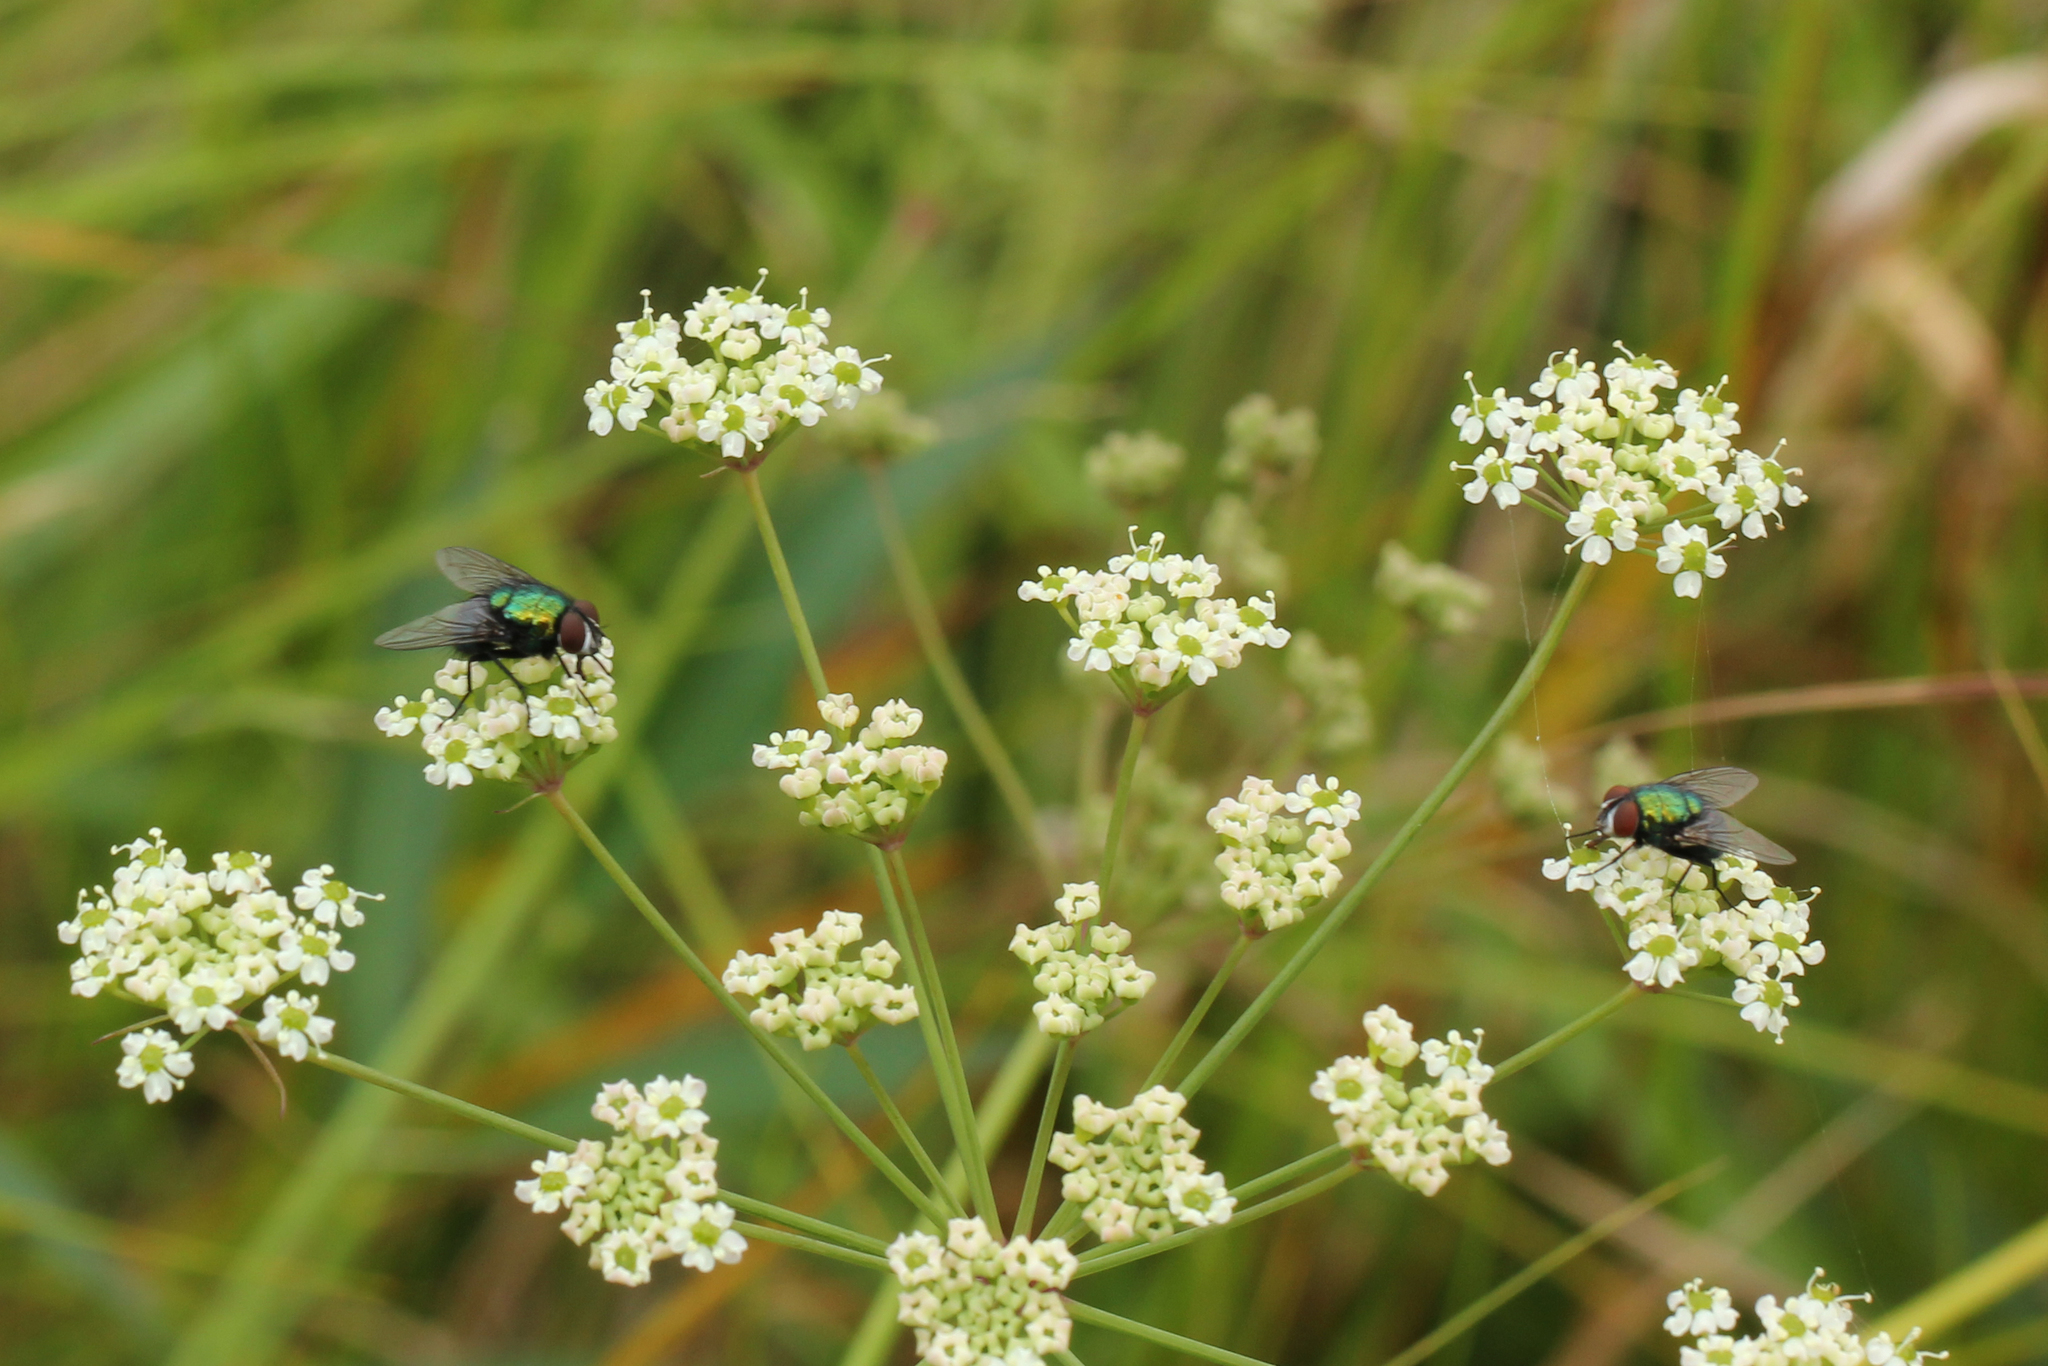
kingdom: Animalia
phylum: Arthropoda
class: Insecta
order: Diptera
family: Calliphoridae
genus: Lucilia
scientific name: Lucilia sericata
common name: Blow fly
